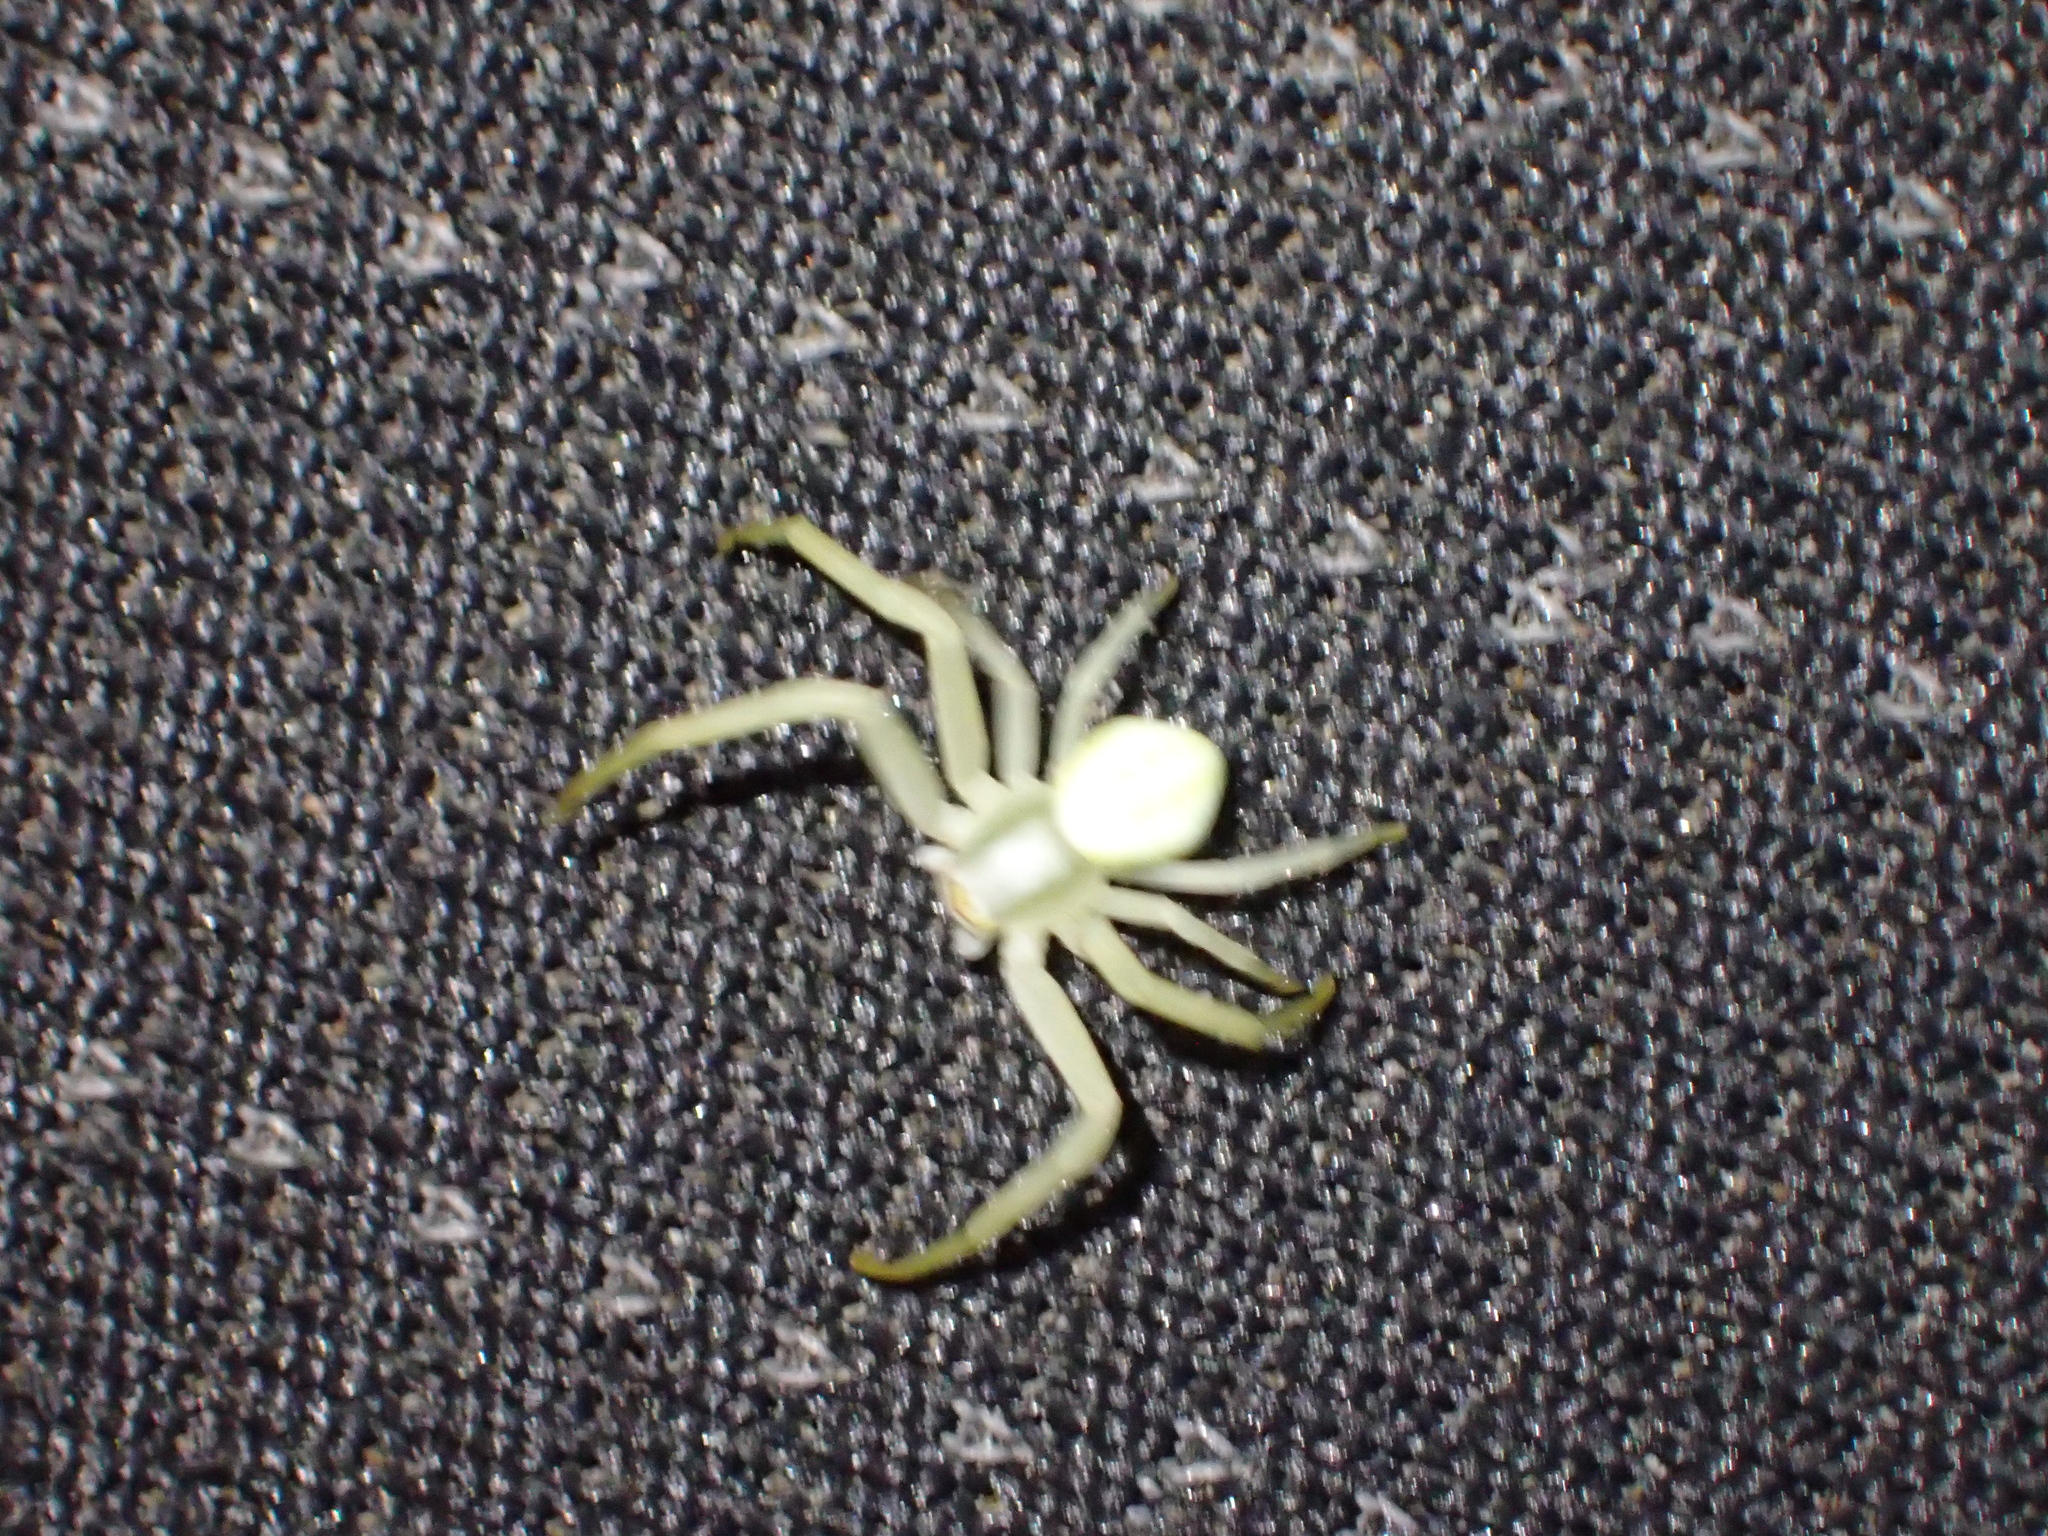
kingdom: Animalia
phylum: Arthropoda
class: Arachnida
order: Araneae
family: Thomisidae
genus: Misumena
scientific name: Misumena vatia
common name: Goldenrod crab spider
